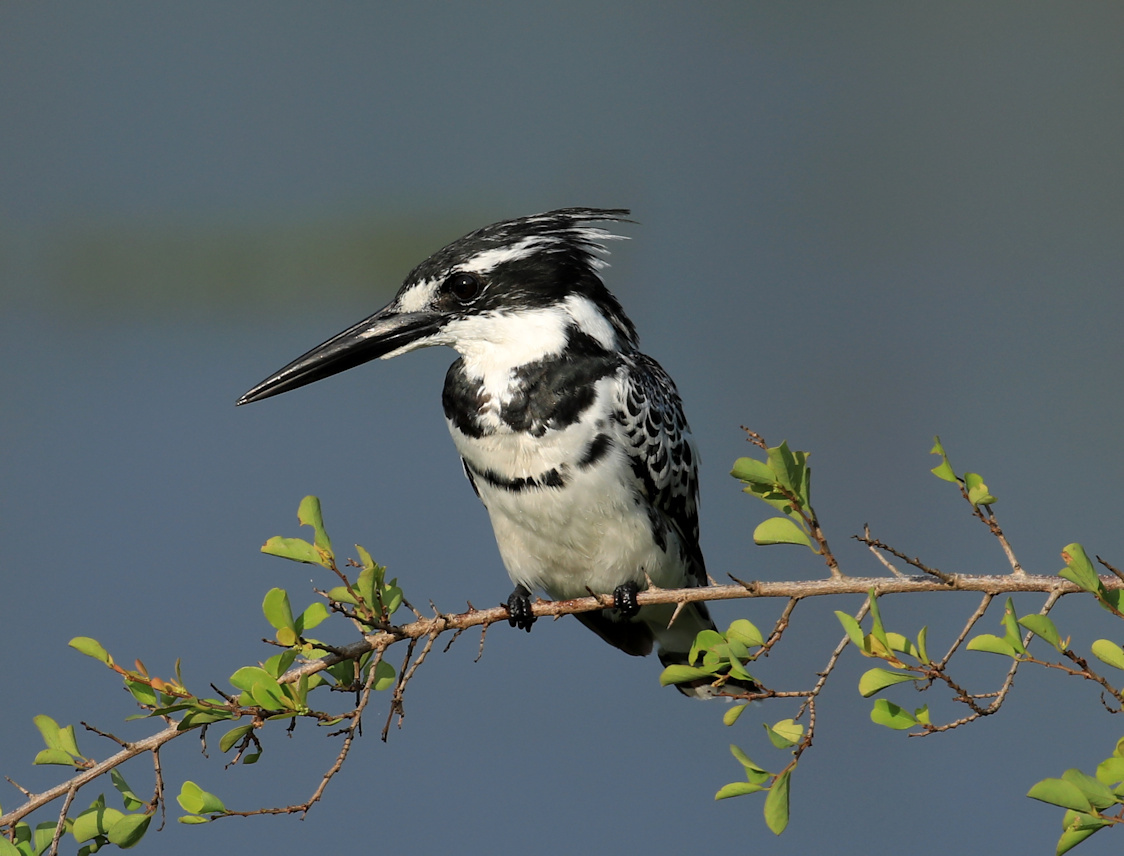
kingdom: Animalia
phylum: Chordata
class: Aves
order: Coraciiformes
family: Alcedinidae
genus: Ceryle
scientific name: Ceryle rudis
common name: Pied kingfisher
